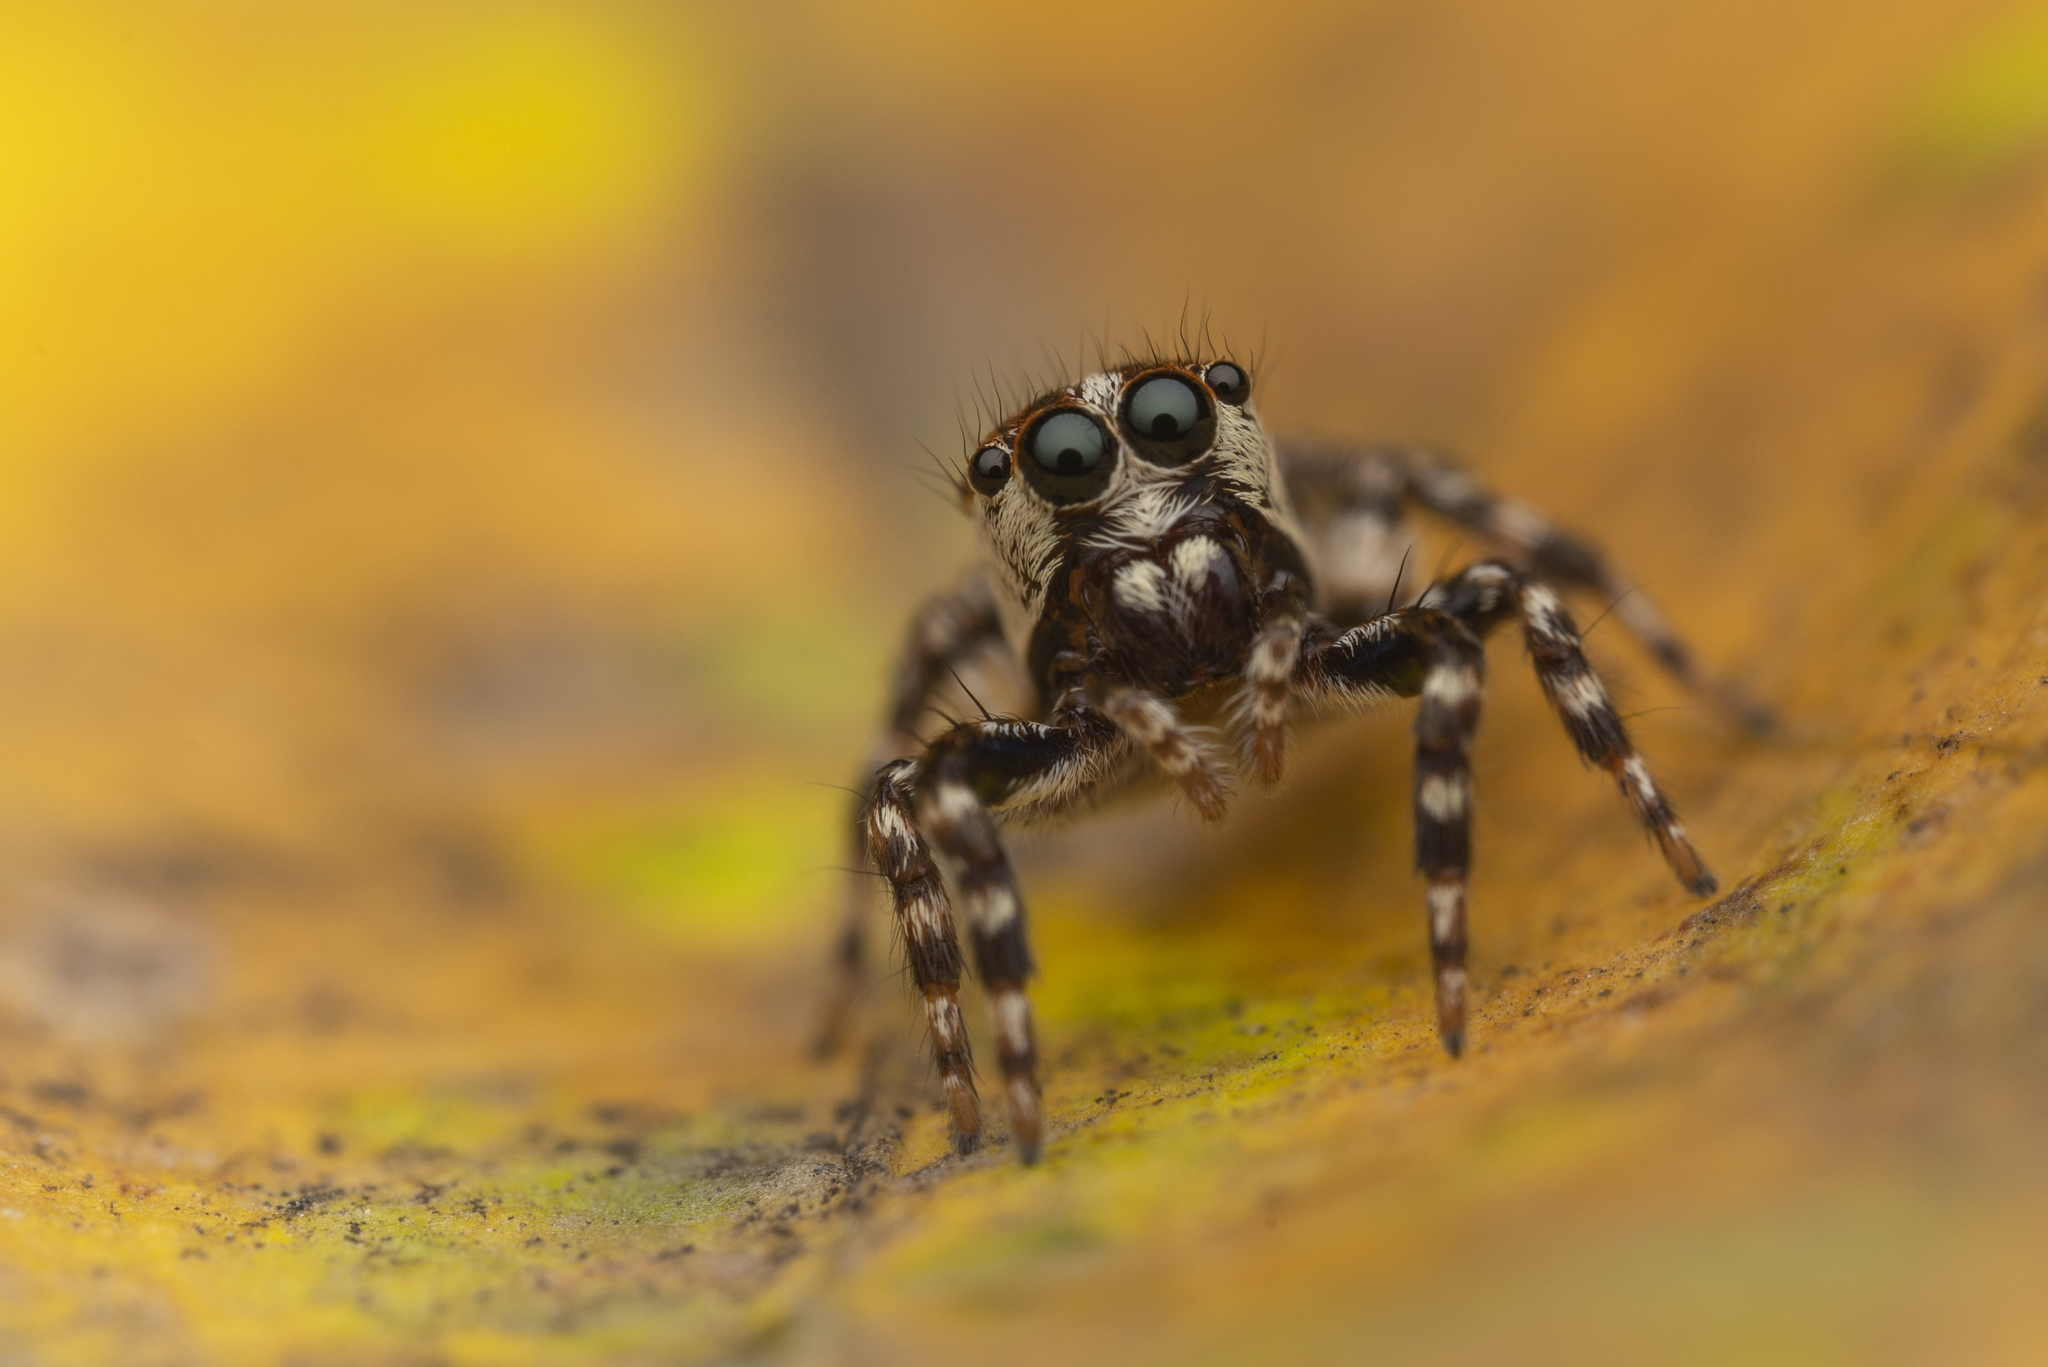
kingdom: Animalia
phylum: Arthropoda
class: Arachnida
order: Araneae
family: Salticidae
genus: Thyene
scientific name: Thyene orientalis
